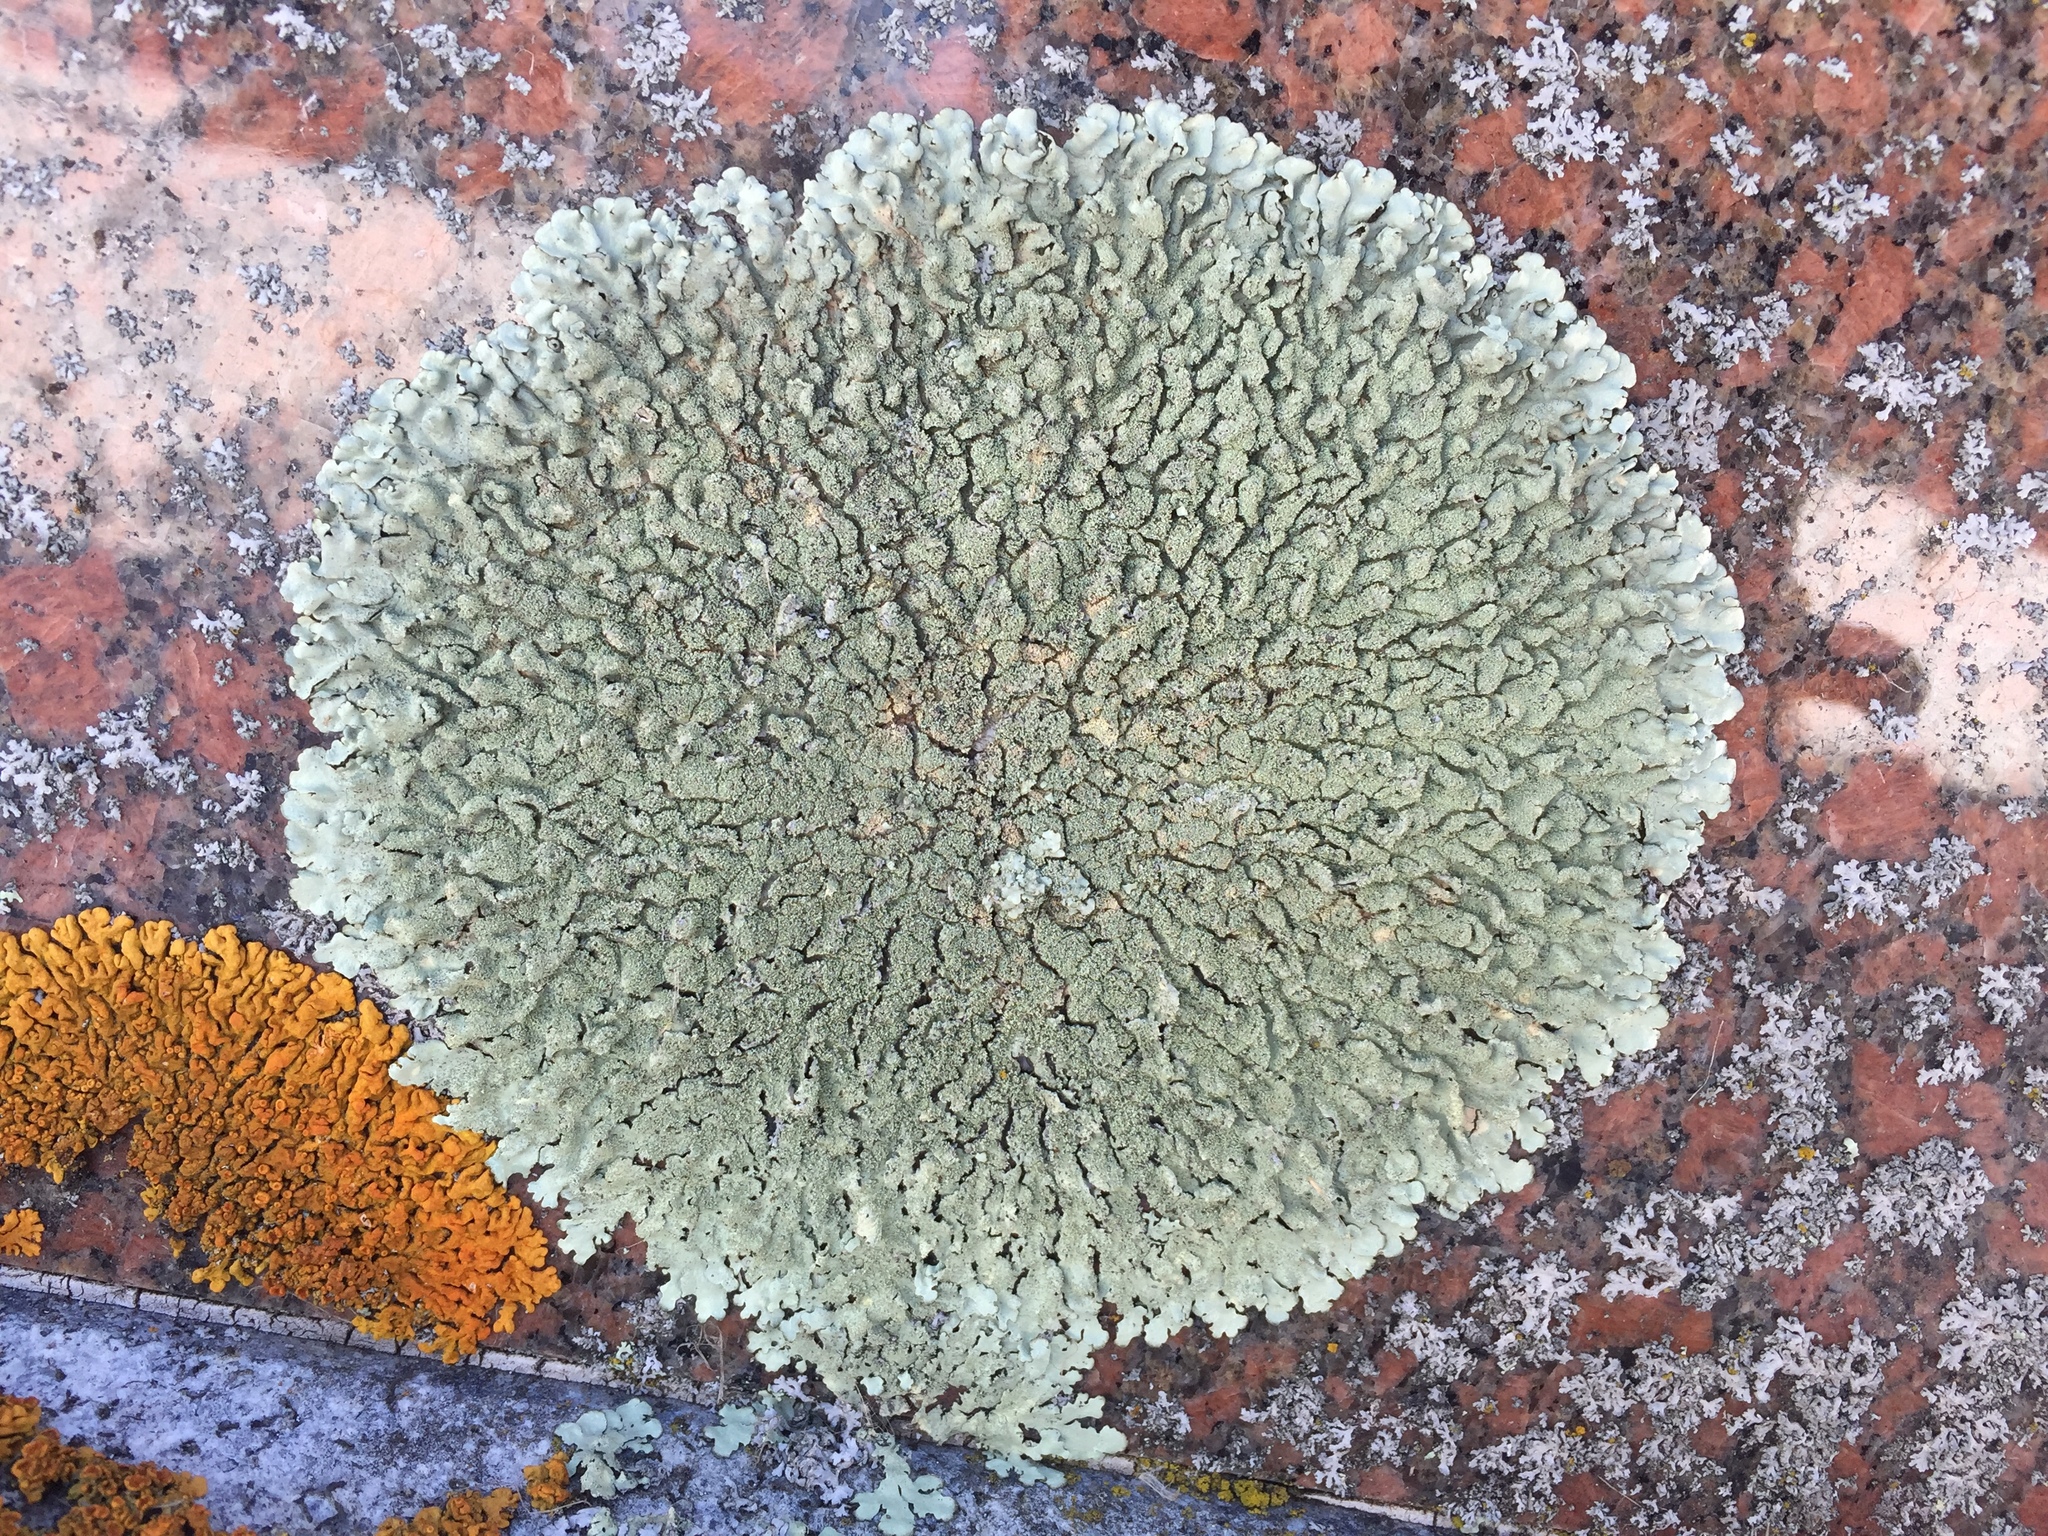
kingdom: Fungi
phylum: Ascomycota
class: Lecanoromycetes
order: Lecanorales
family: Parmeliaceae
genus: Xanthoparmelia
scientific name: Xanthoparmelia plittii
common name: Plitt's rock shield
